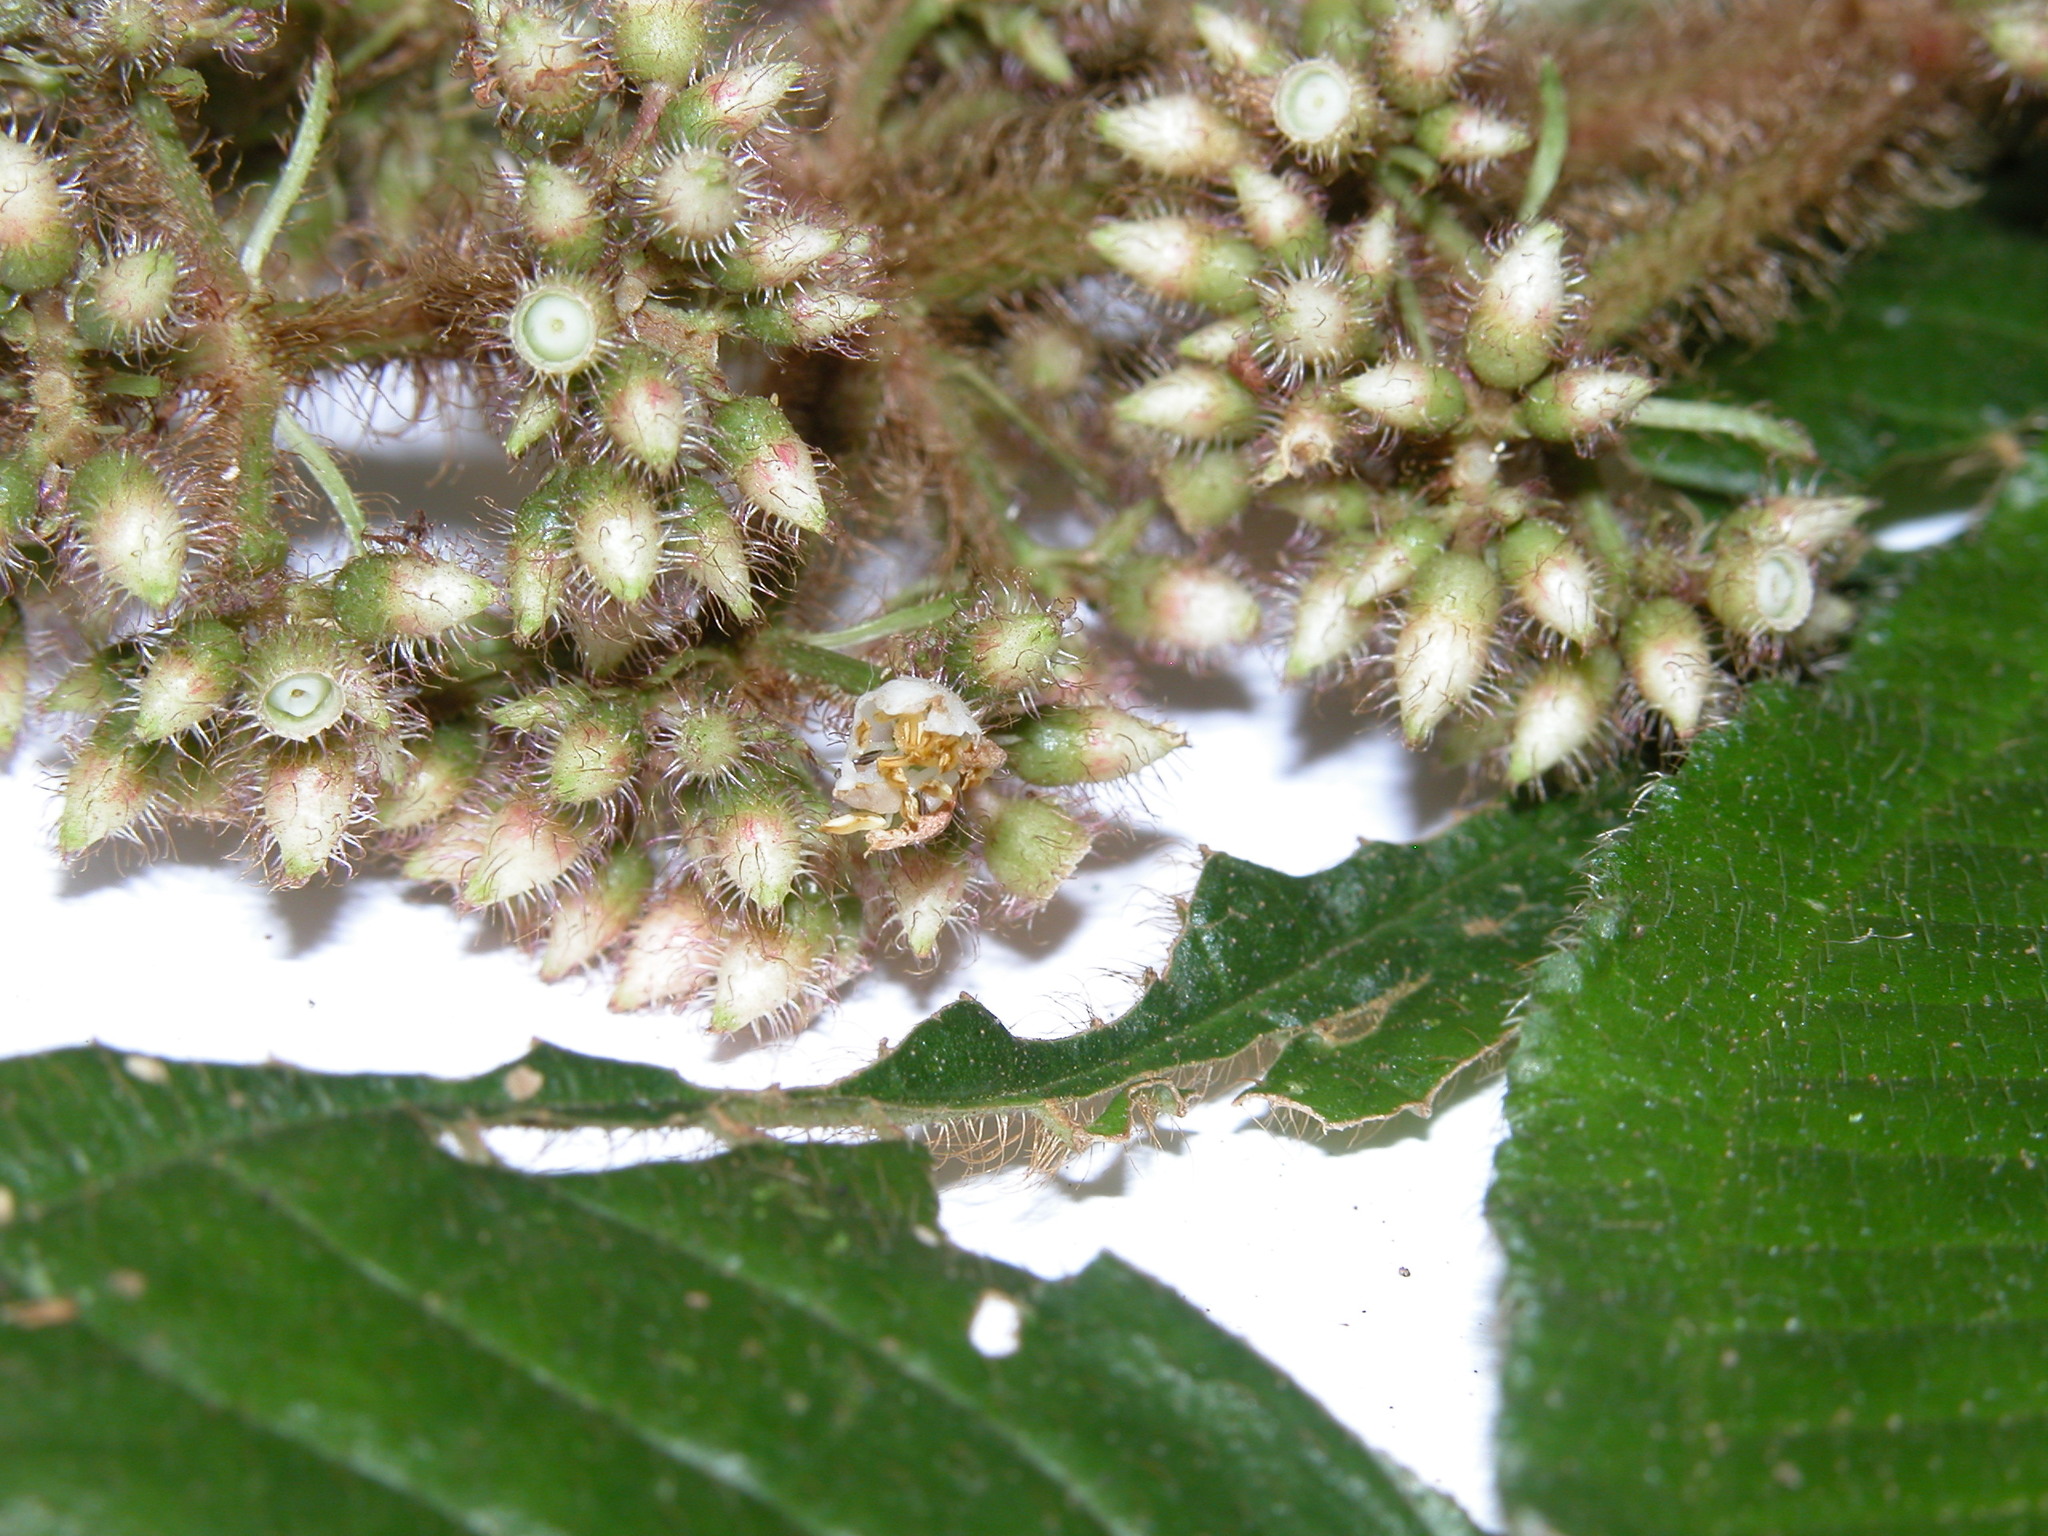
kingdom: Plantae
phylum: Tracheophyta
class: Magnoliopsida
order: Myrtales
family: Melastomataceae
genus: Miconia
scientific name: Miconia conosetosa
